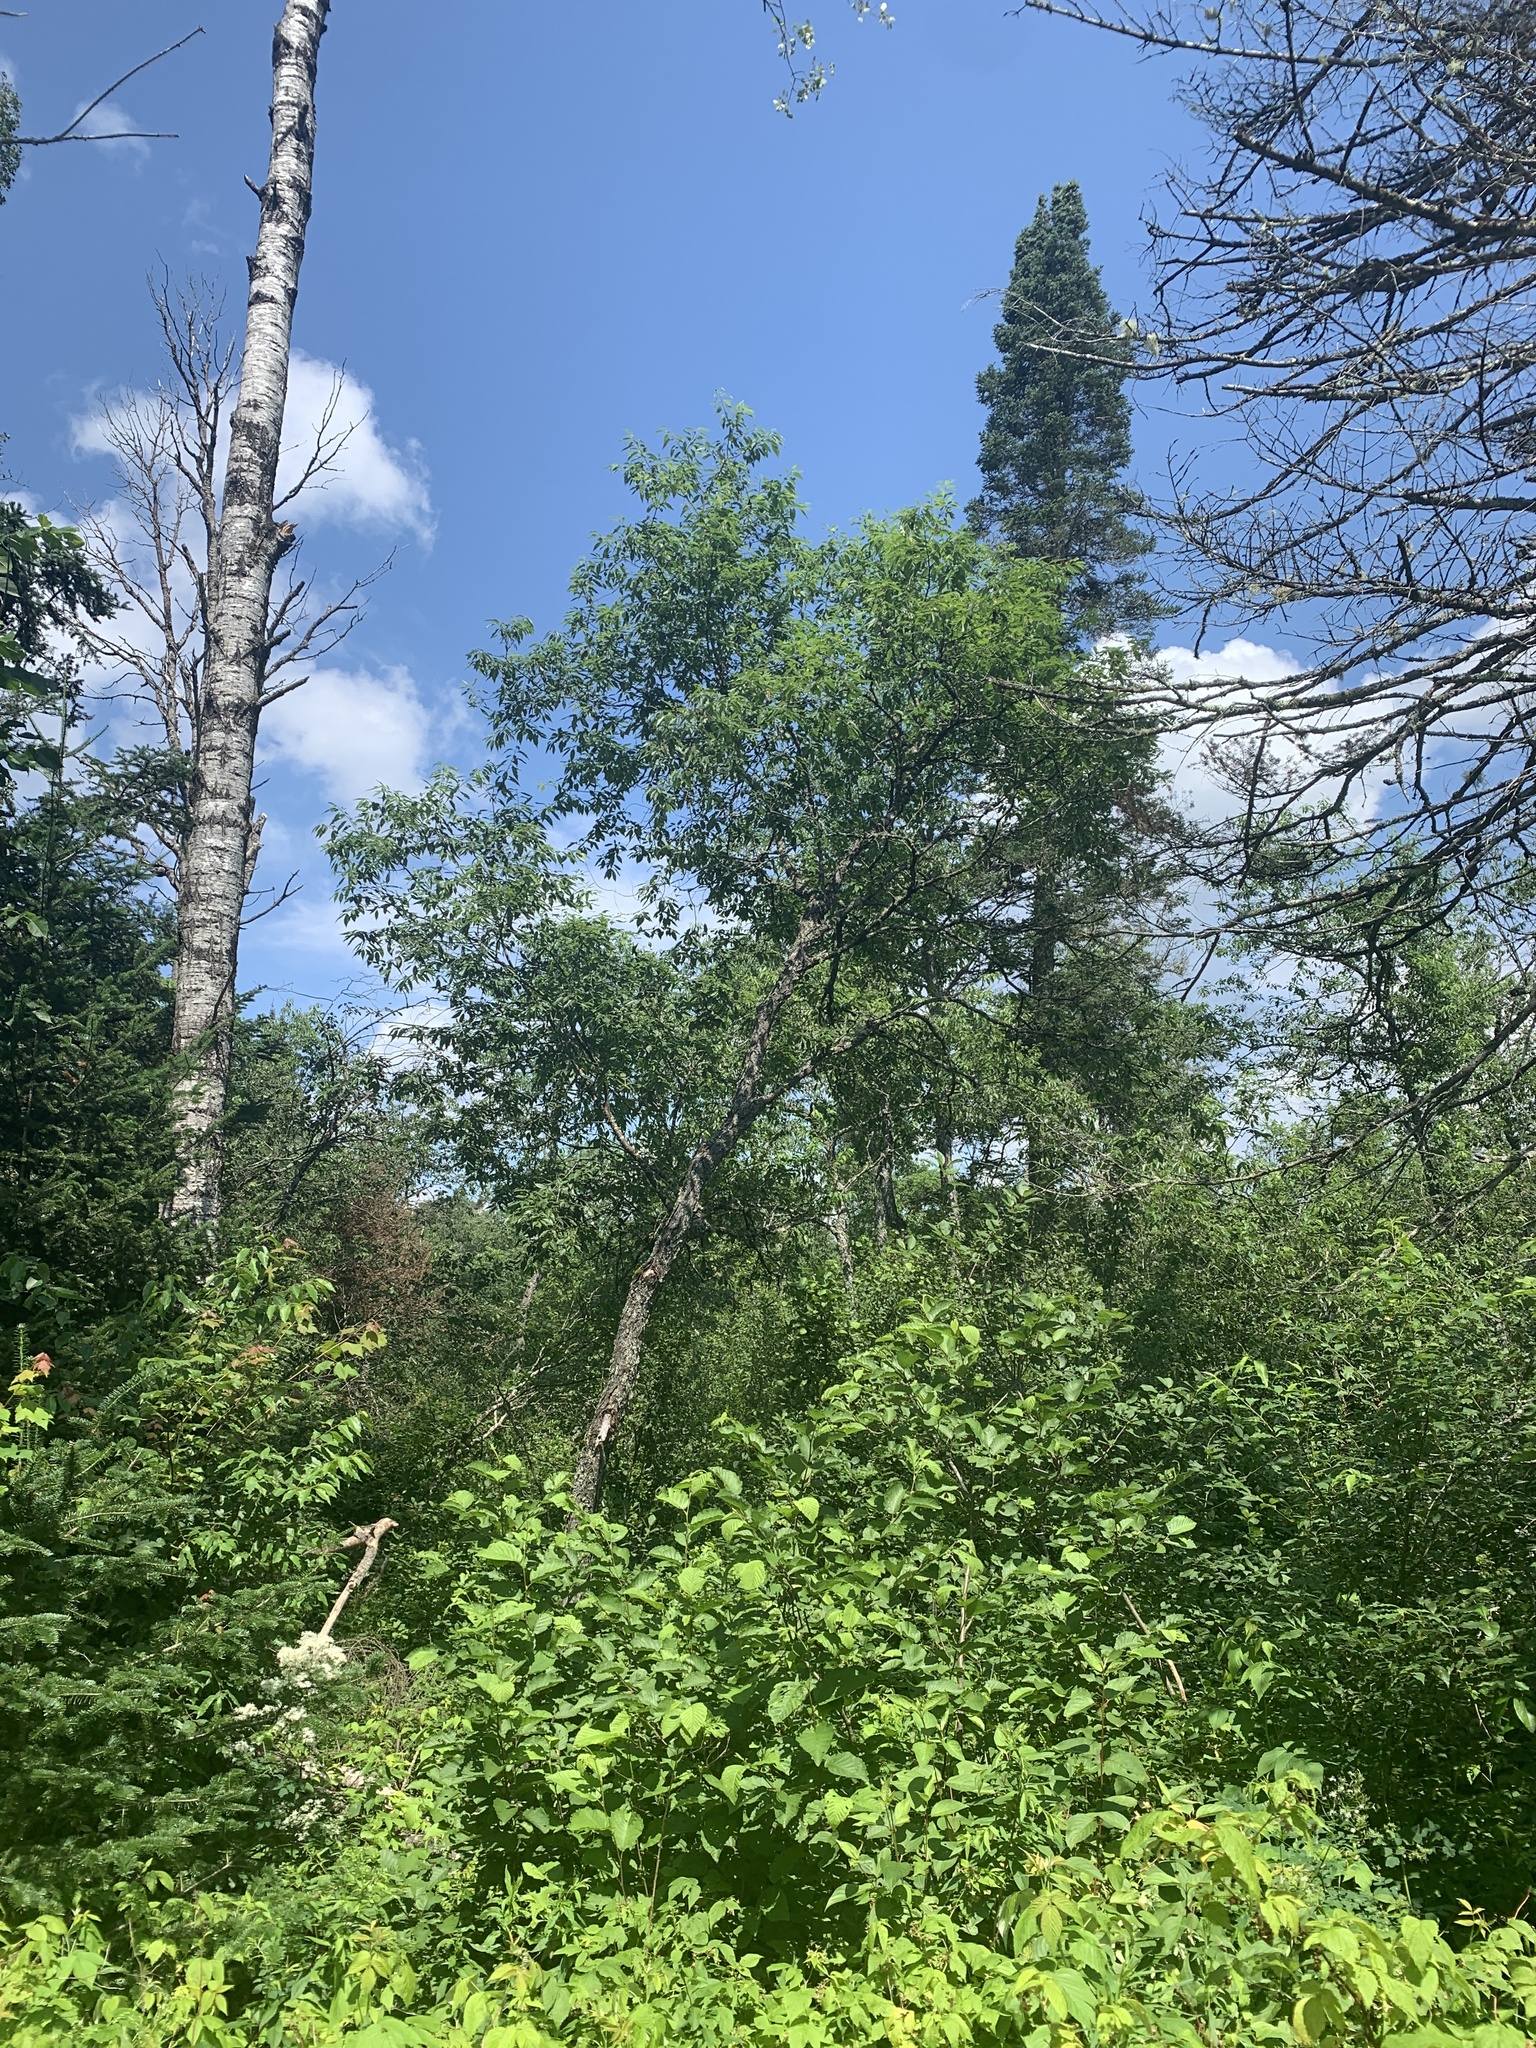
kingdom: Plantae
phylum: Tracheophyta
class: Magnoliopsida
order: Rosales
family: Rosaceae
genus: Prunus
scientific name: Prunus serotina
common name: Black cherry
